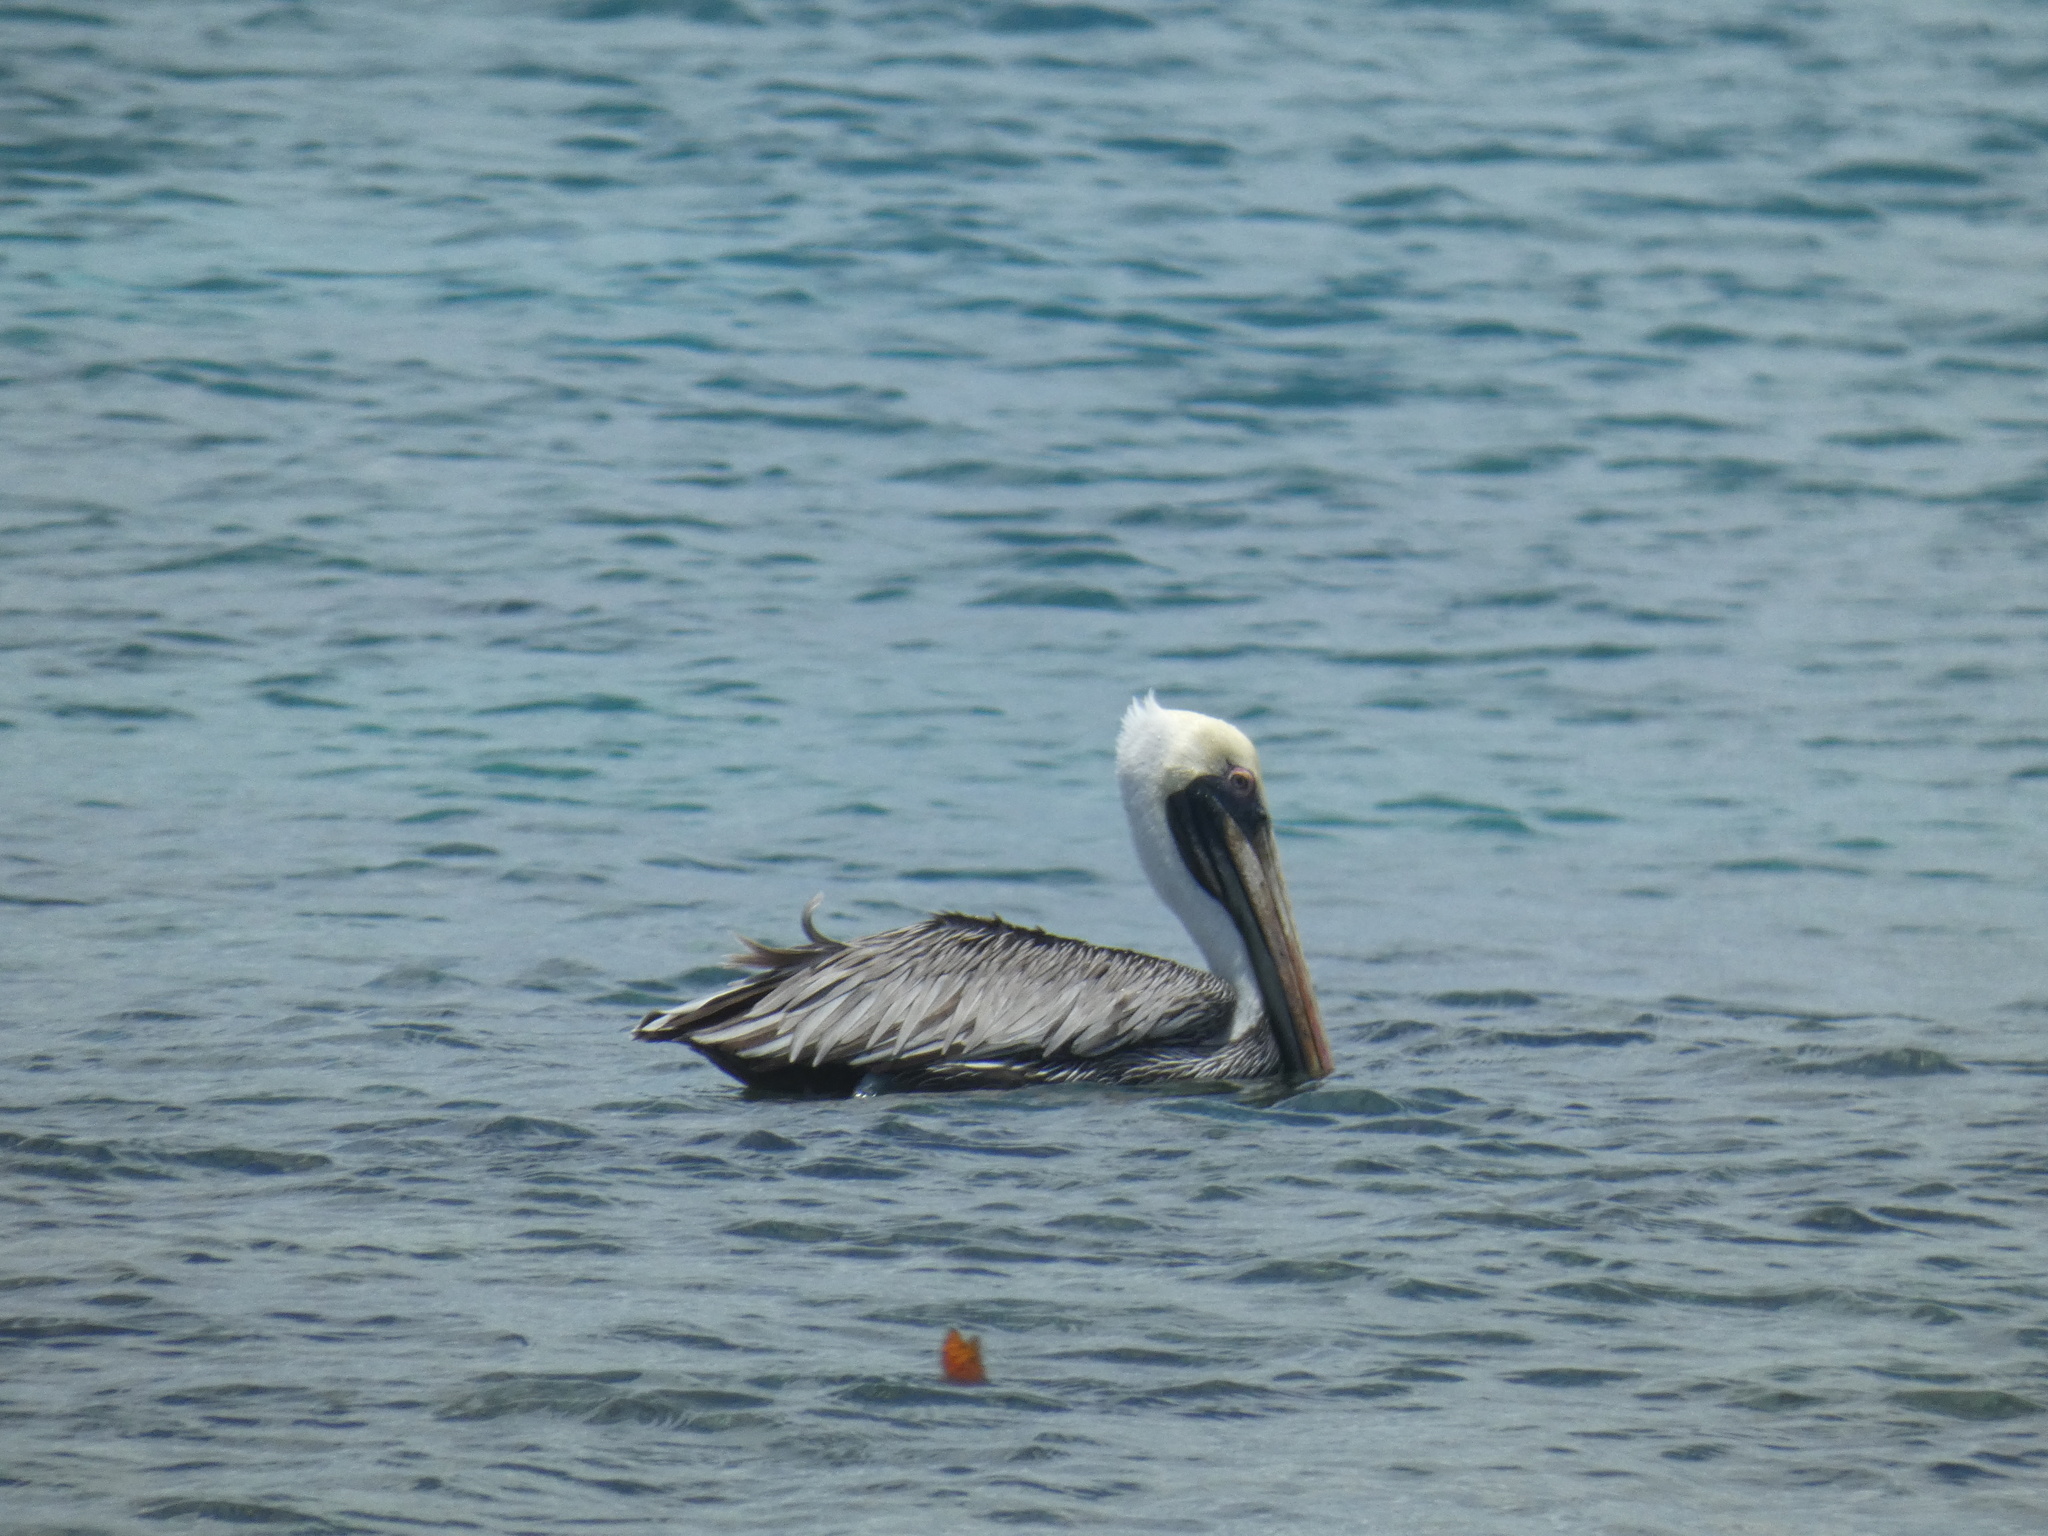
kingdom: Animalia
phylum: Chordata
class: Aves
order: Pelecaniformes
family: Pelecanidae
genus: Pelecanus
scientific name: Pelecanus occidentalis
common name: Brown pelican
